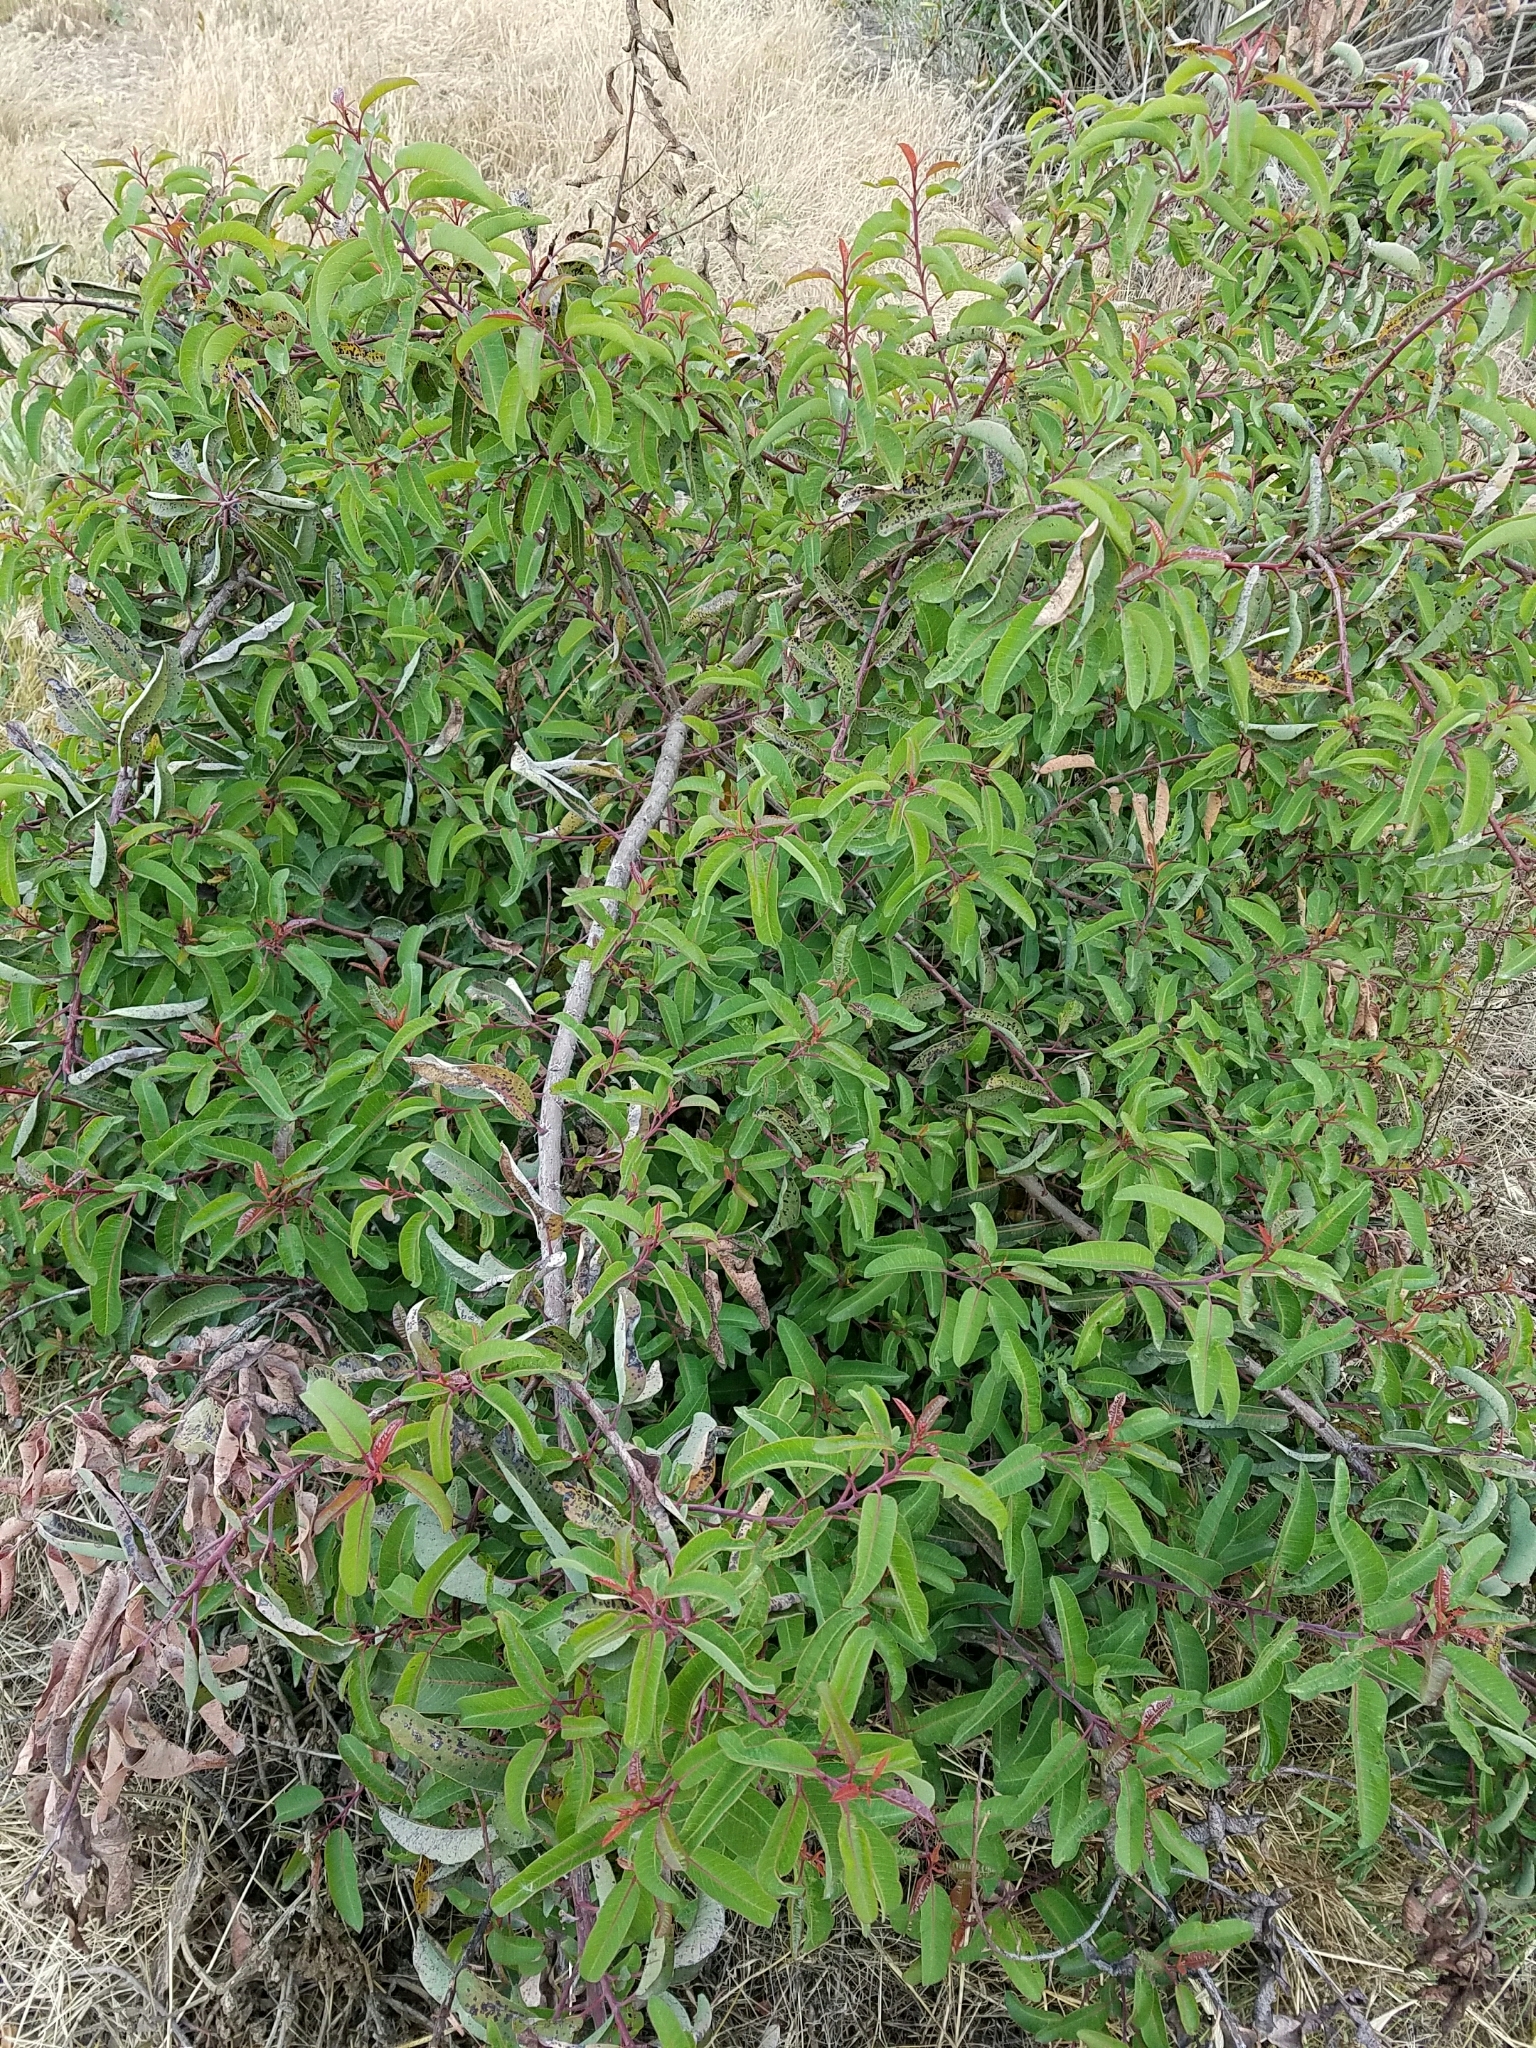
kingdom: Plantae
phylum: Tracheophyta
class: Magnoliopsida
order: Sapindales
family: Anacardiaceae
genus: Malosma
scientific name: Malosma laurina
